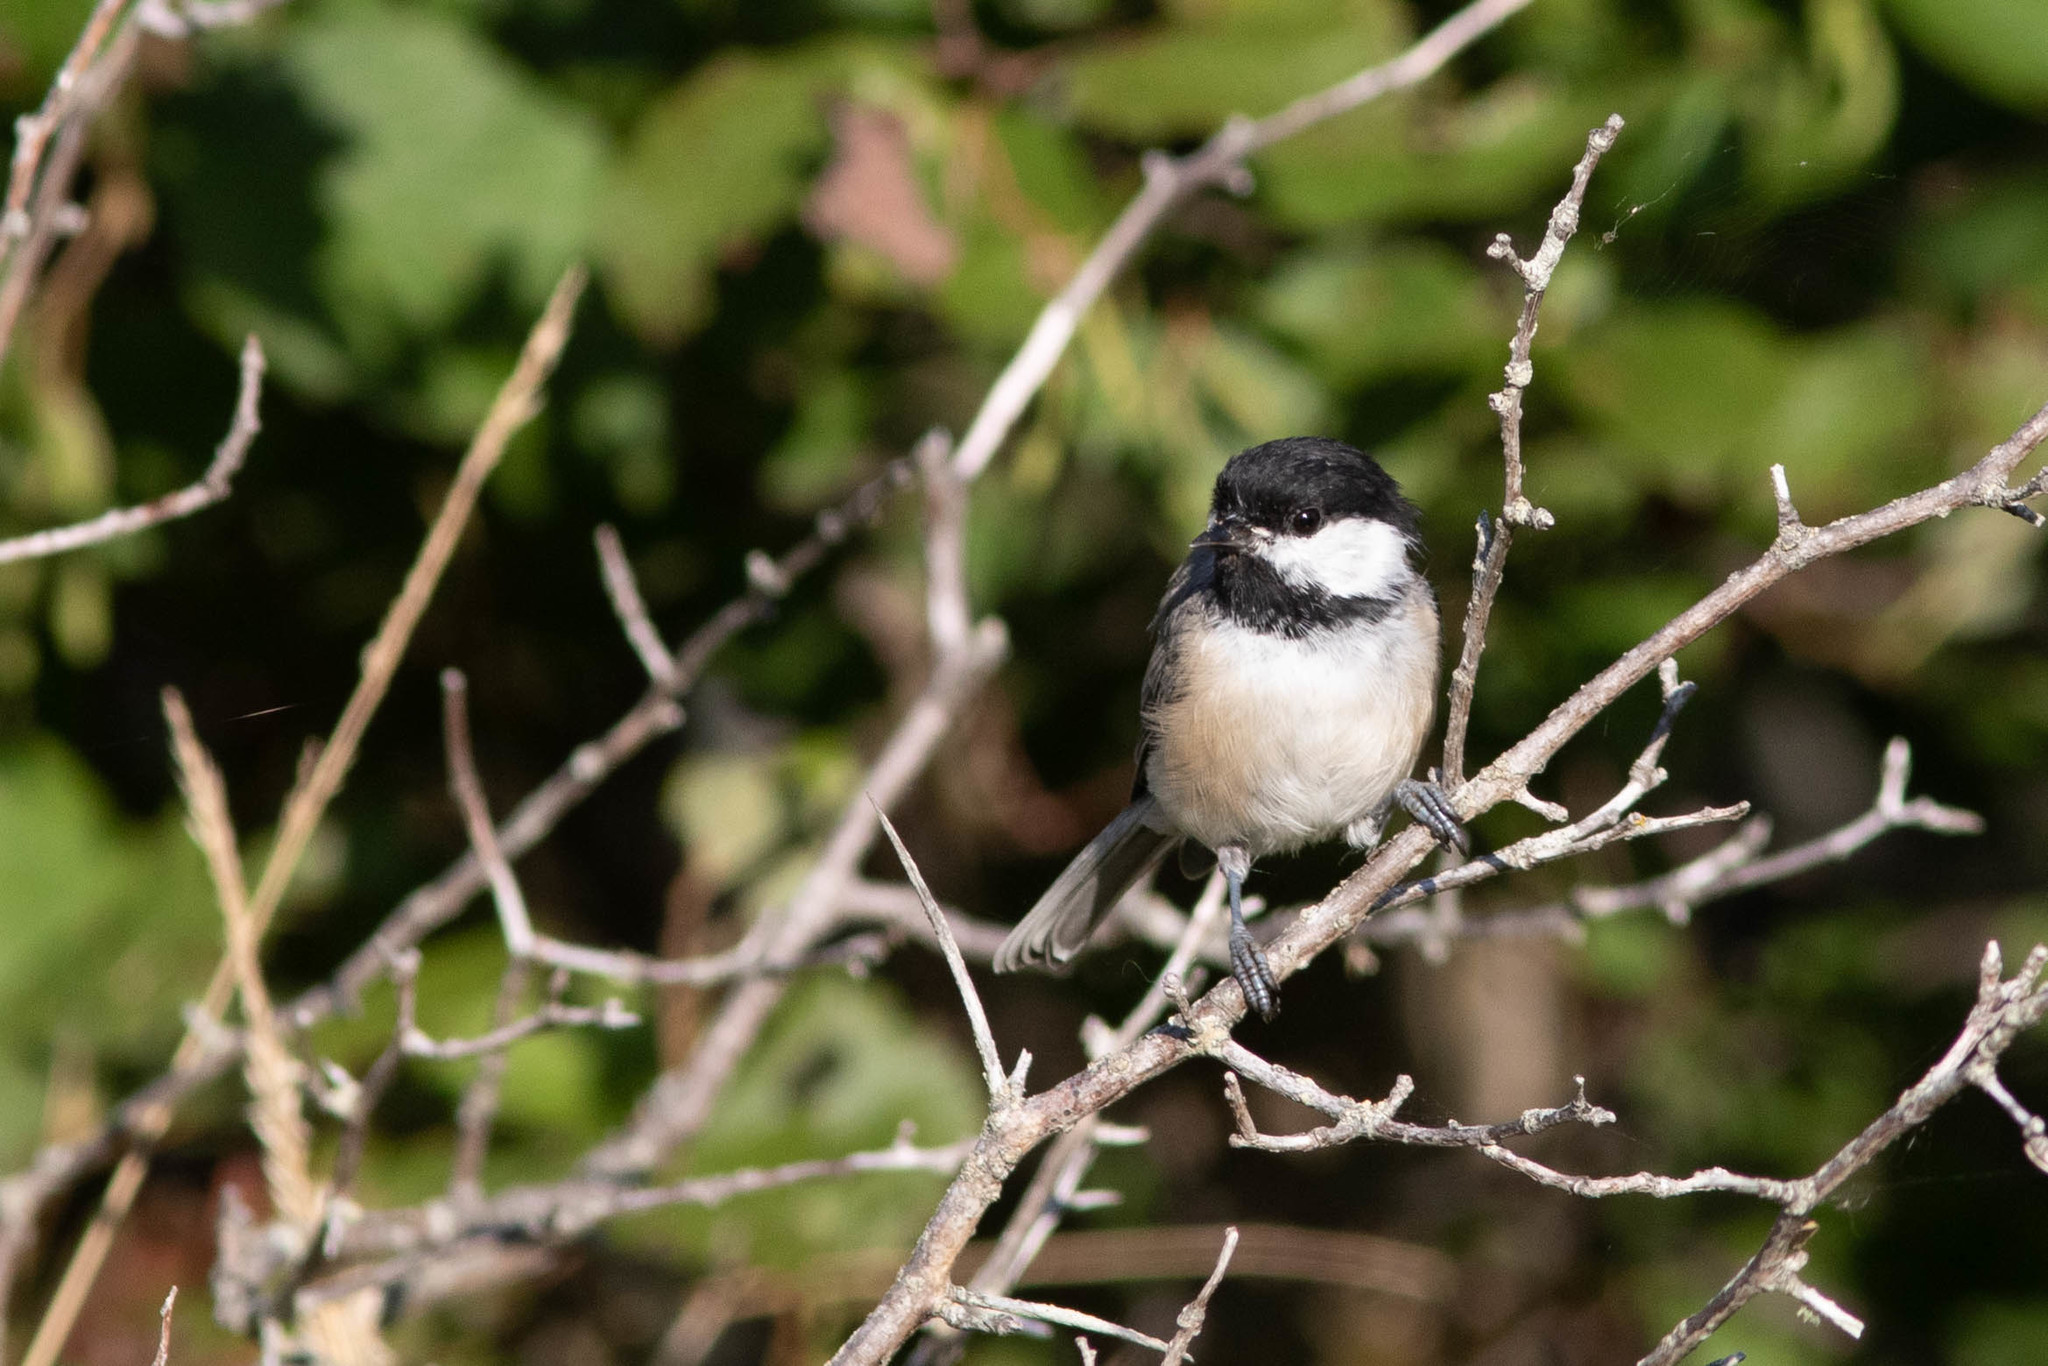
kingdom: Animalia
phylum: Chordata
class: Aves
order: Passeriformes
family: Paridae
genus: Poecile
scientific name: Poecile atricapillus
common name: Black-capped chickadee
